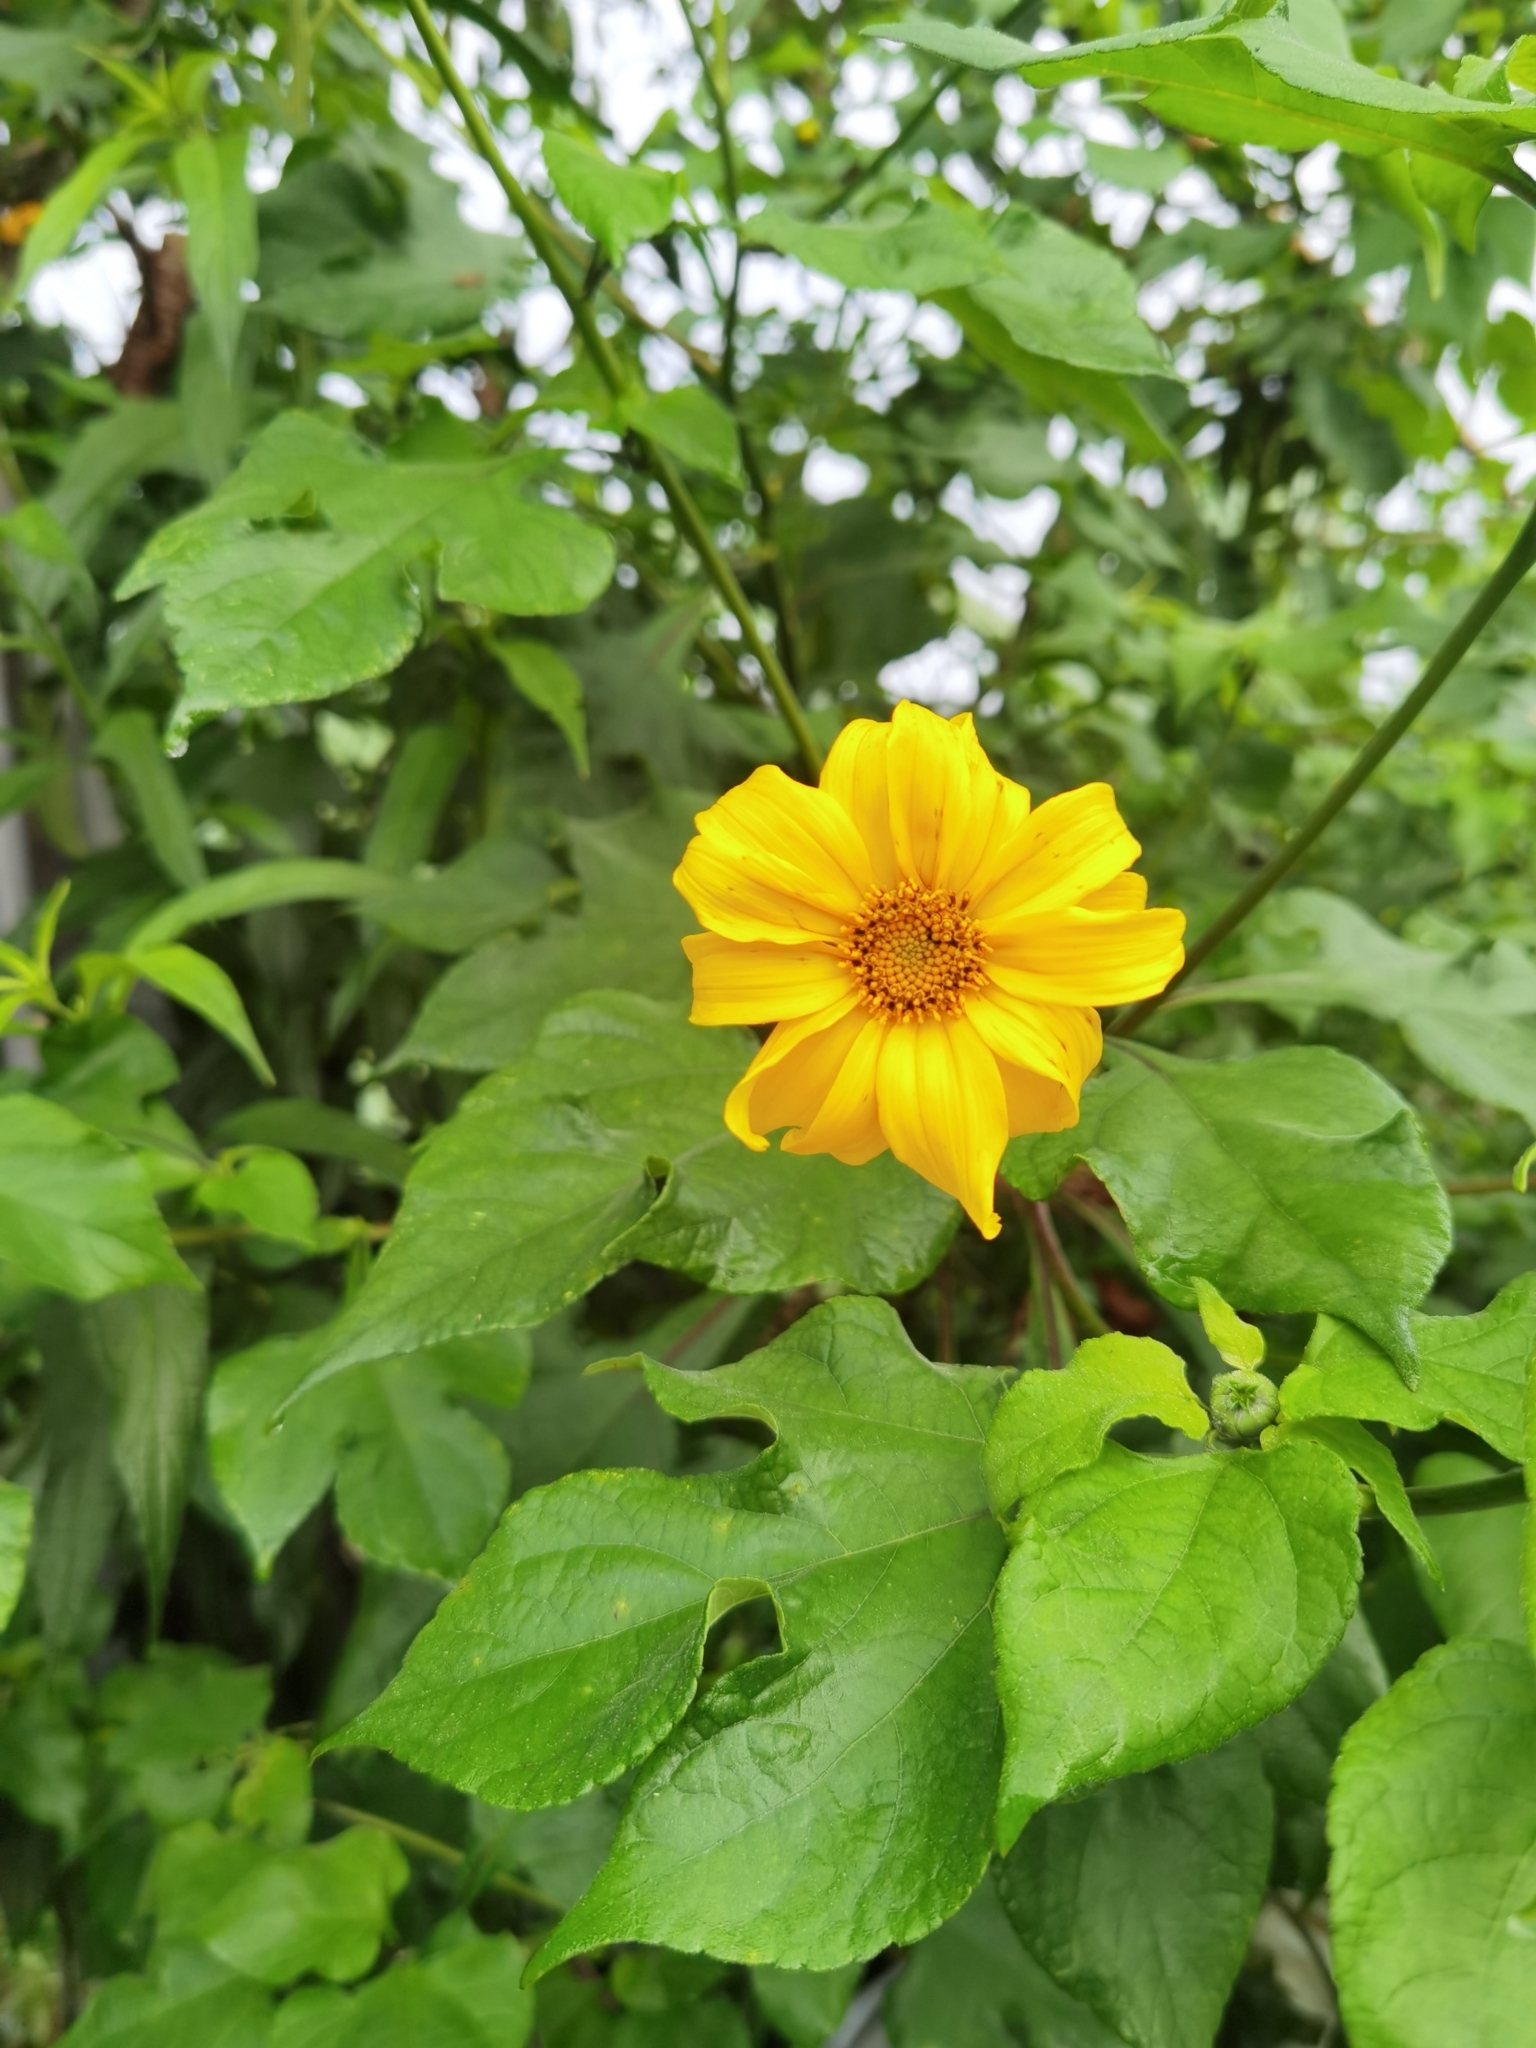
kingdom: Plantae
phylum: Tracheophyta
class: Magnoliopsida
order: Asterales
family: Asteraceae
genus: Tithonia
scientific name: Tithonia diversifolia
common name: Tree marigold
